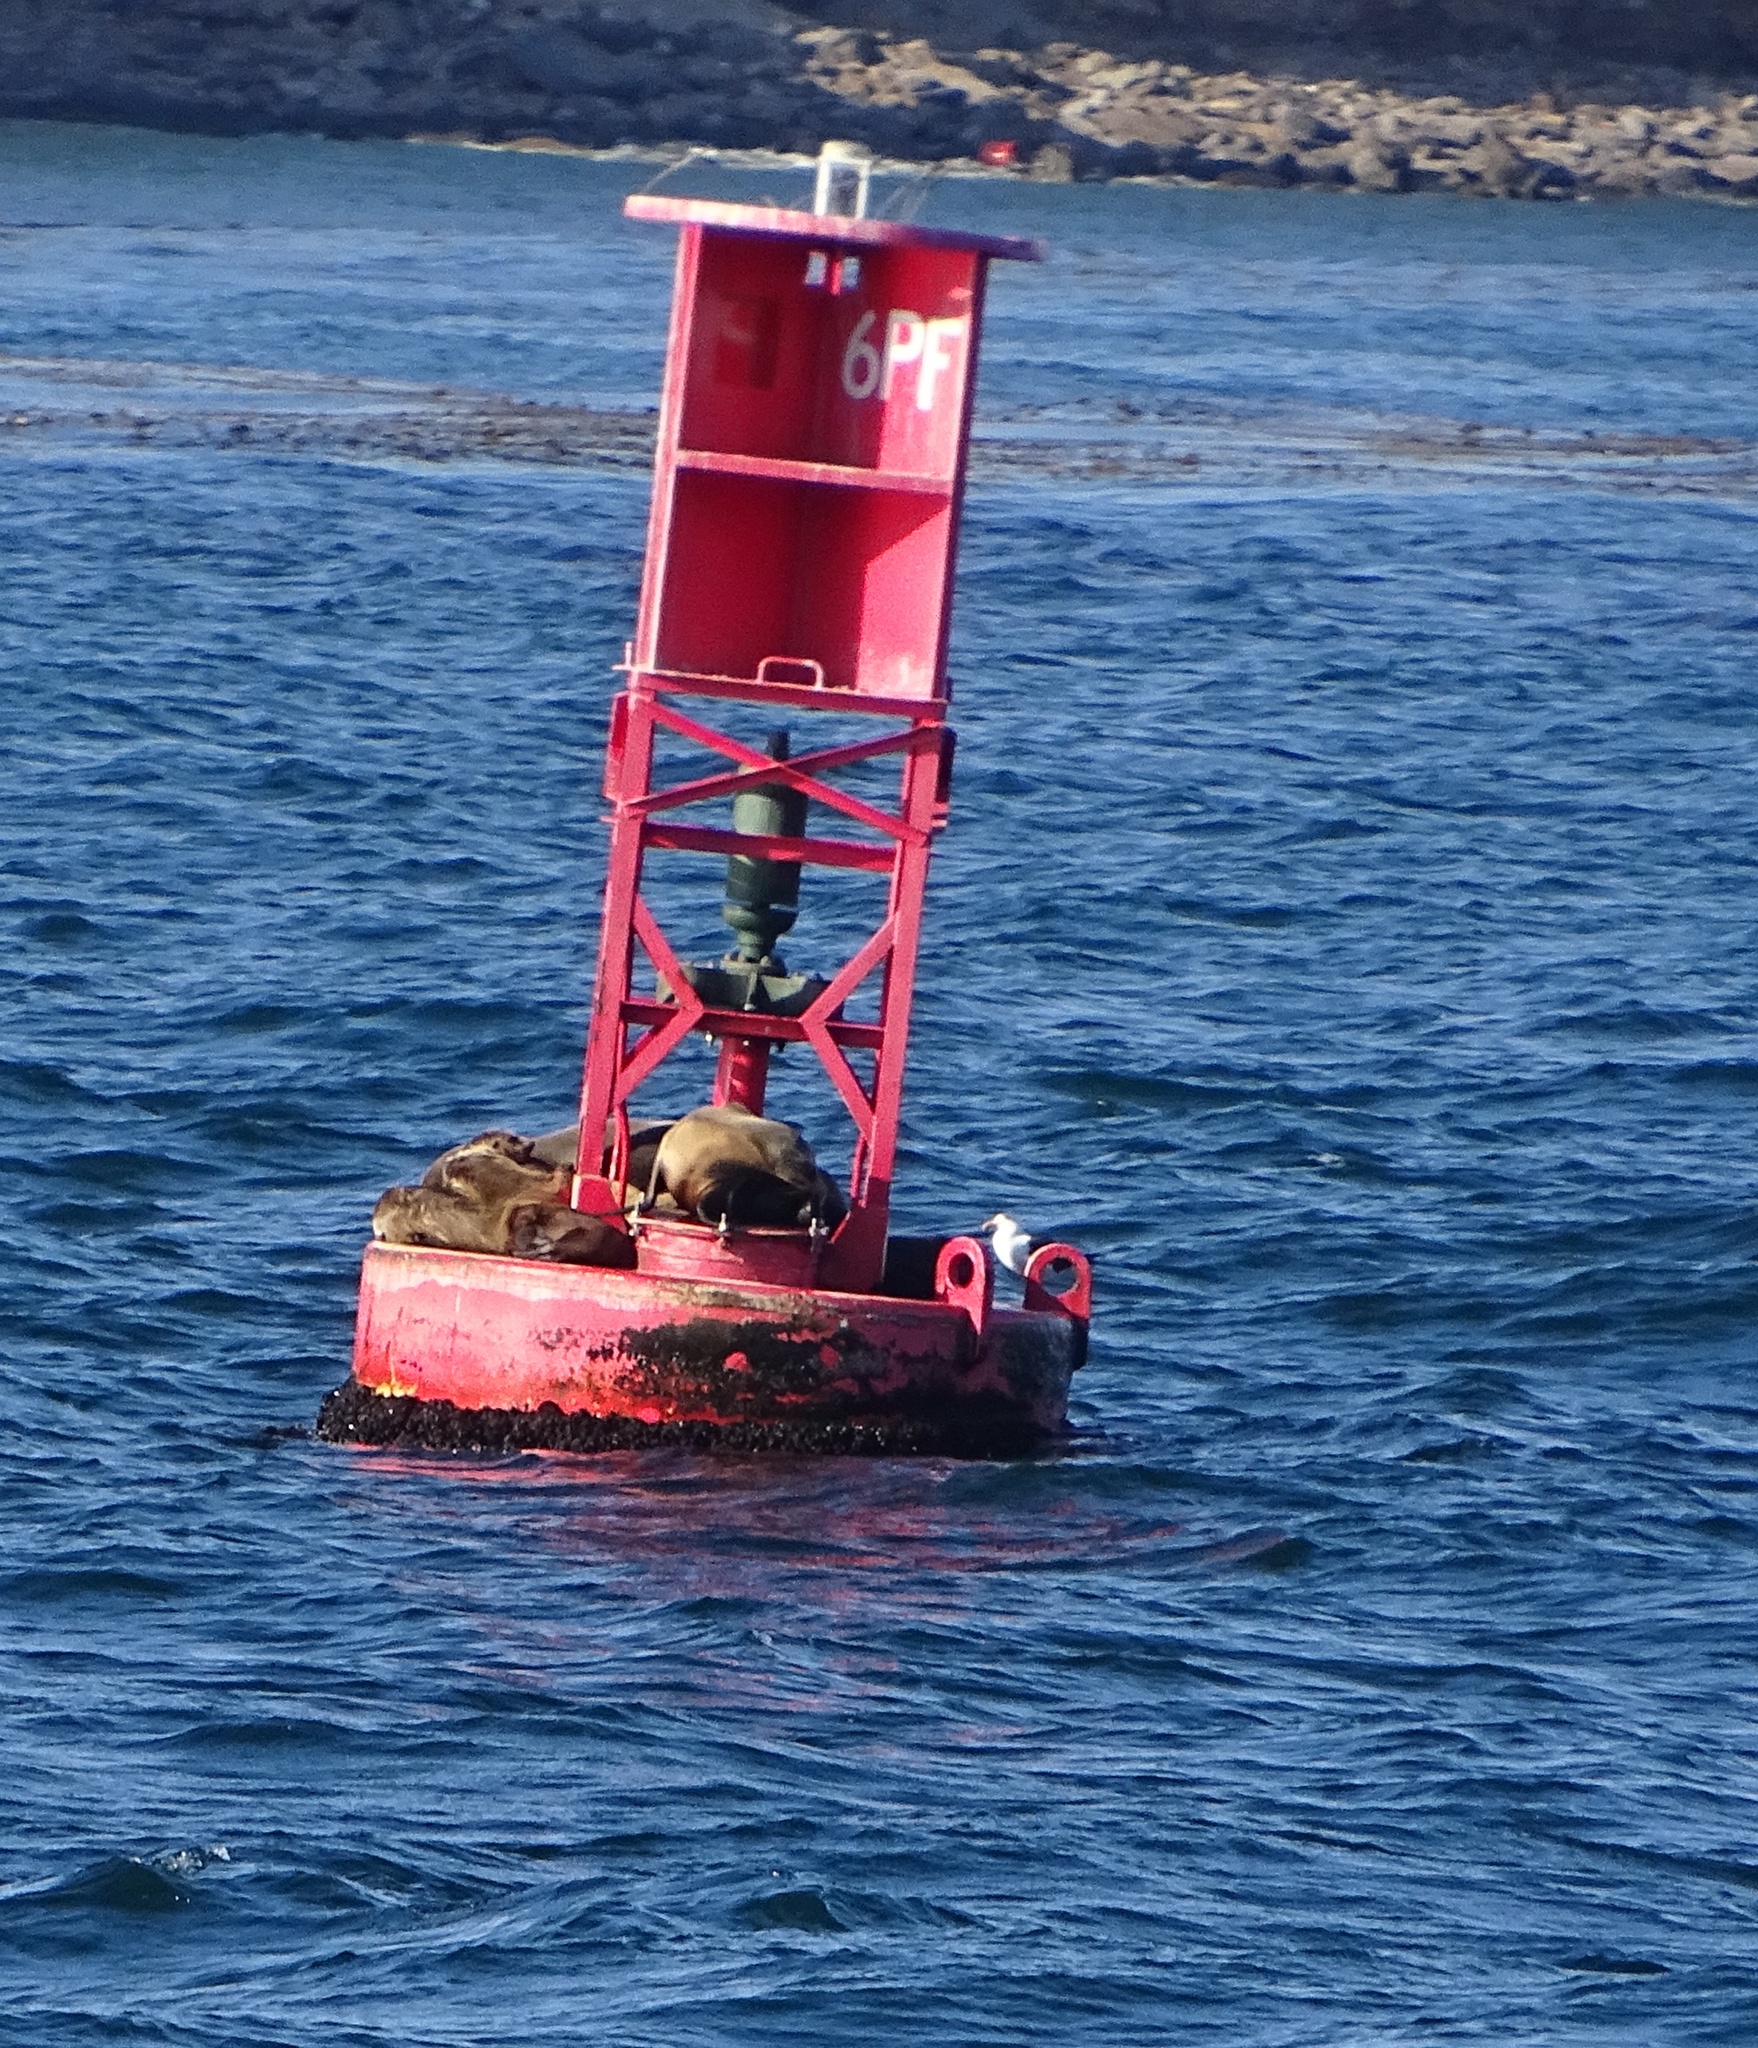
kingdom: Animalia
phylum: Chordata
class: Mammalia
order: Carnivora
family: Otariidae
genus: Zalophus
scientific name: Zalophus californianus
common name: California sea lion
